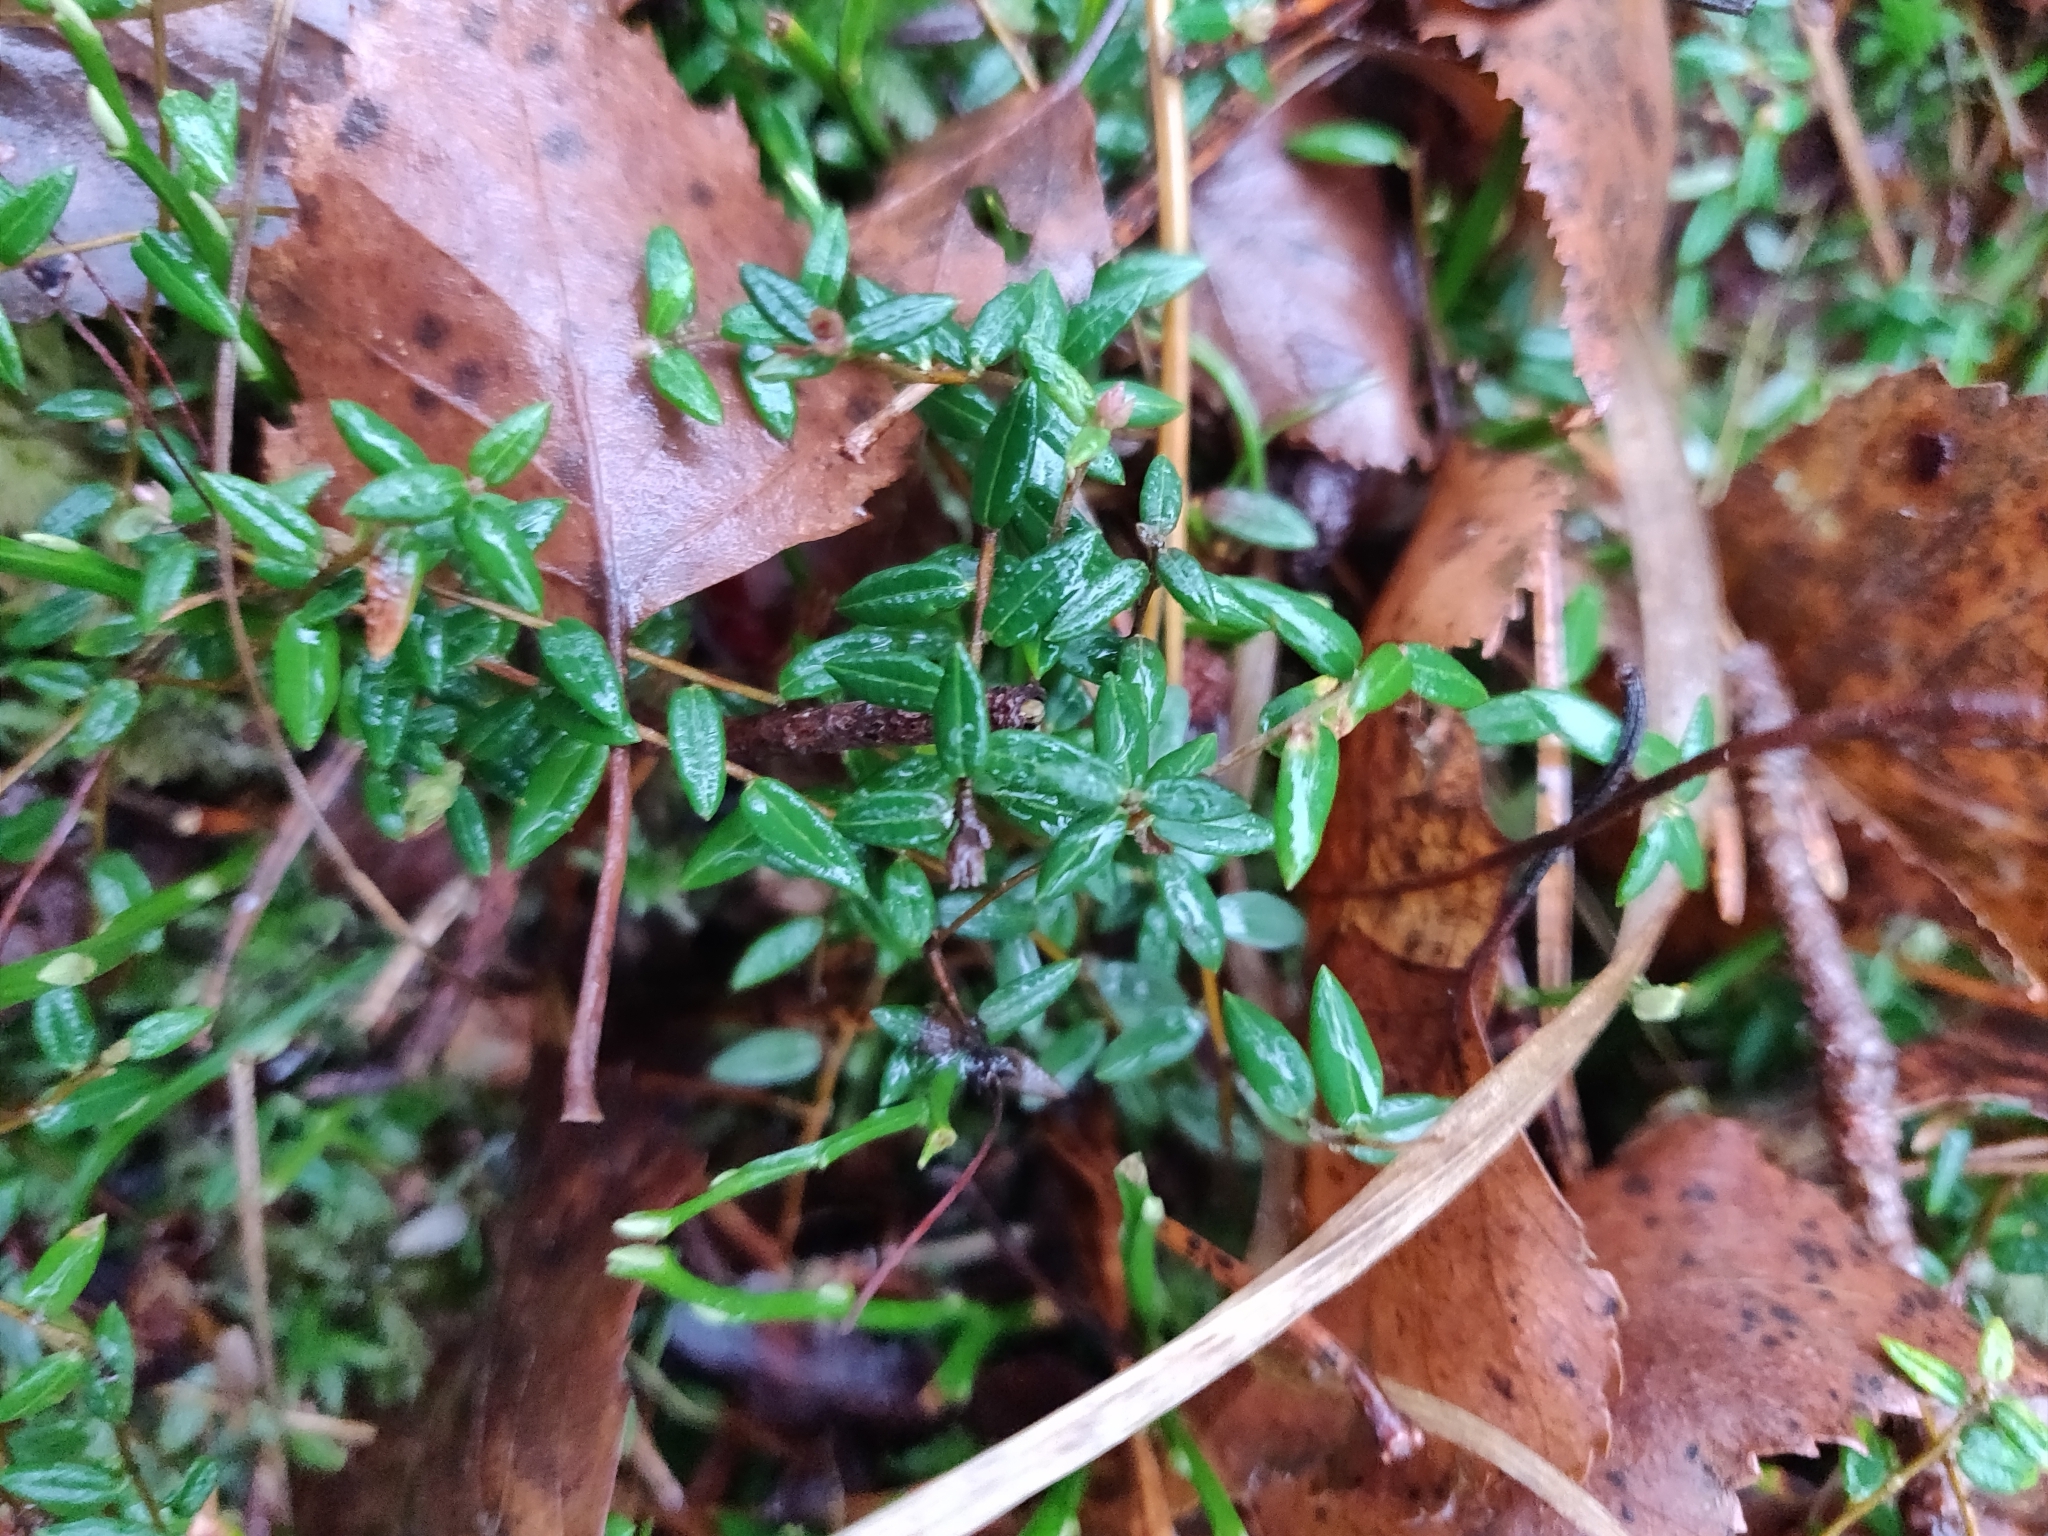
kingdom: Plantae
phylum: Tracheophyta
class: Magnoliopsida
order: Ericales
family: Ericaceae
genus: Vaccinium
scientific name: Vaccinium oxycoccos
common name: Cranberry
